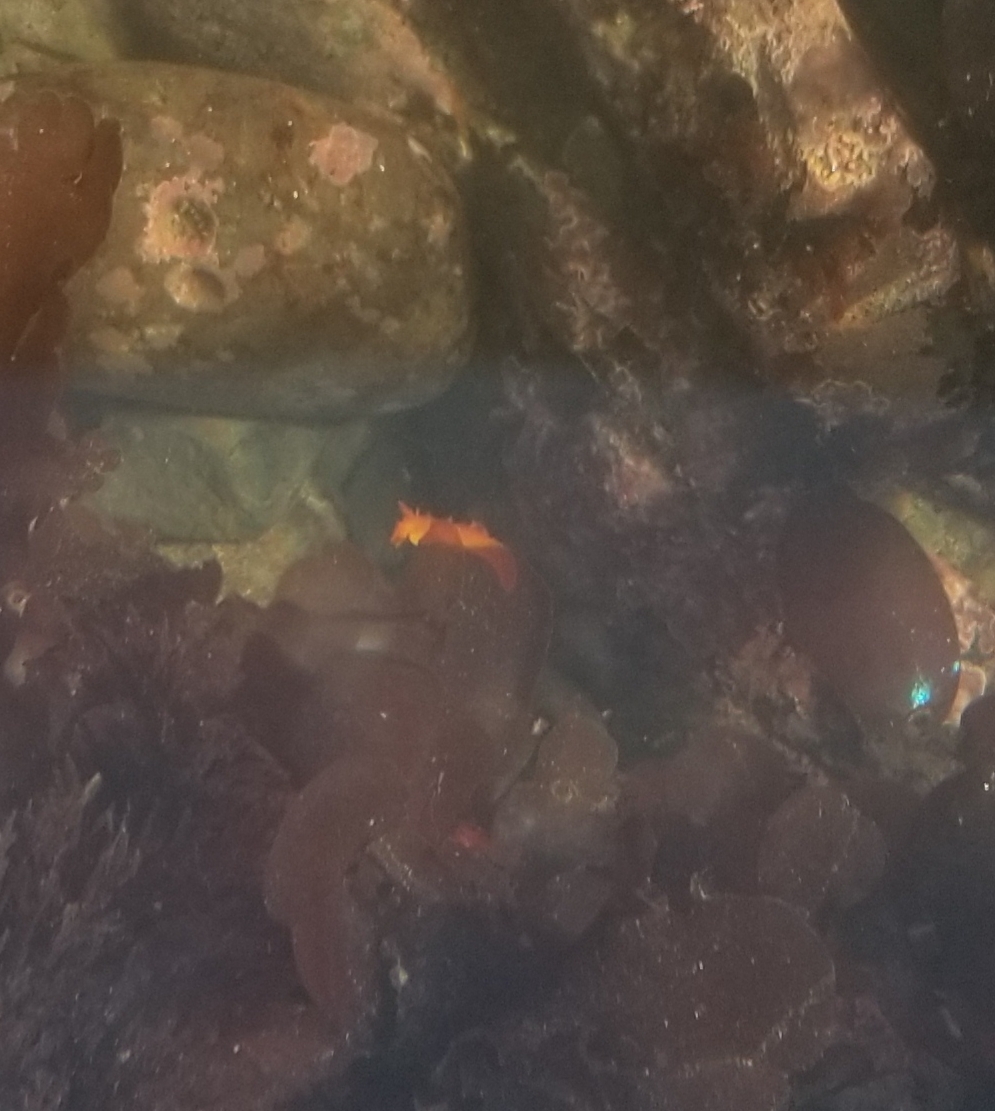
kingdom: Animalia
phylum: Mollusca
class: Gastropoda
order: Nudibranchia
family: Polyceridae
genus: Triopha
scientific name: Triopha maculata
